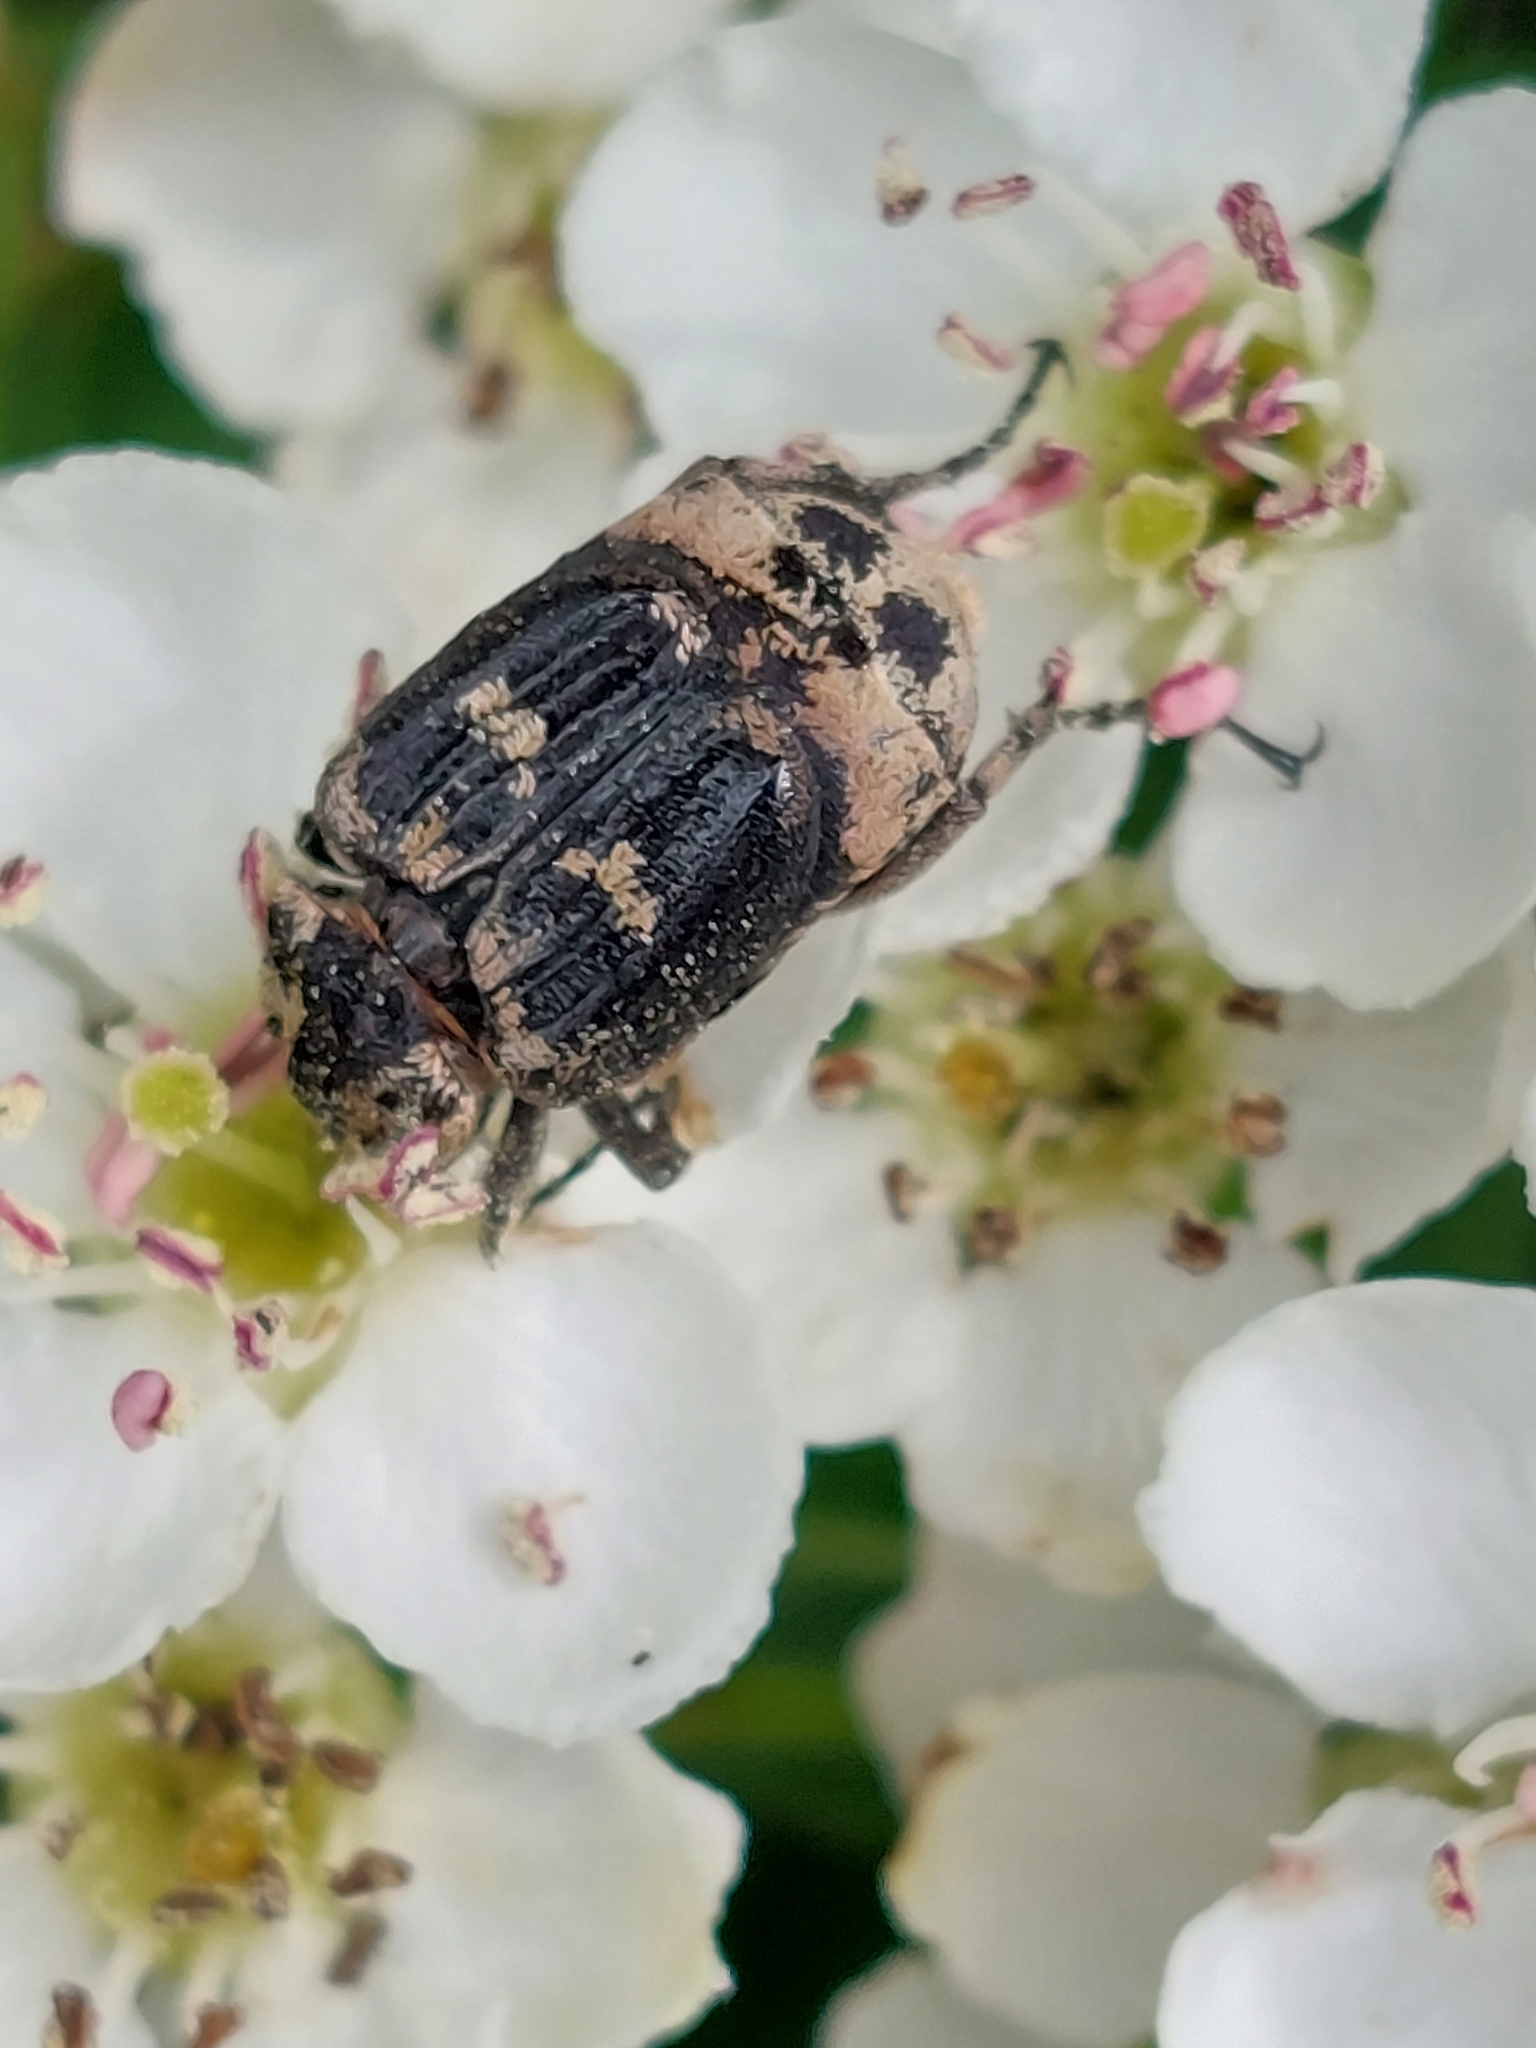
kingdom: Animalia
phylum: Arthropoda
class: Insecta
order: Coleoptera
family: Scarabaeidae
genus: Valgus
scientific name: Valgus hemipterus
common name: Bug flower chafer
